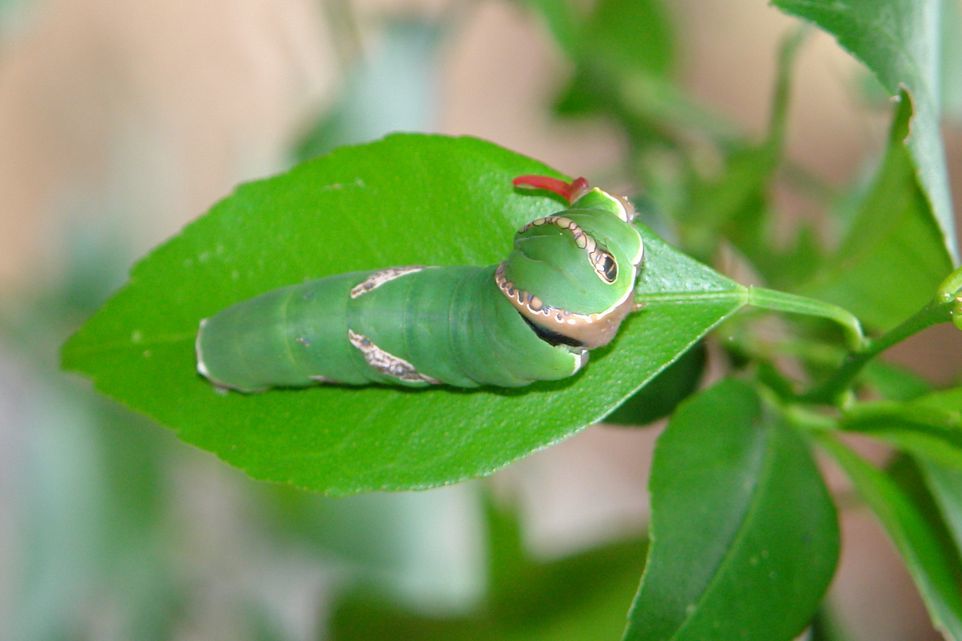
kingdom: Animalia
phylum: Arthropoda
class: Insecta
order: Lepidoptera
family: Papilionidae
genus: Papilio
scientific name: Papilio polytes
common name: Common mormon
